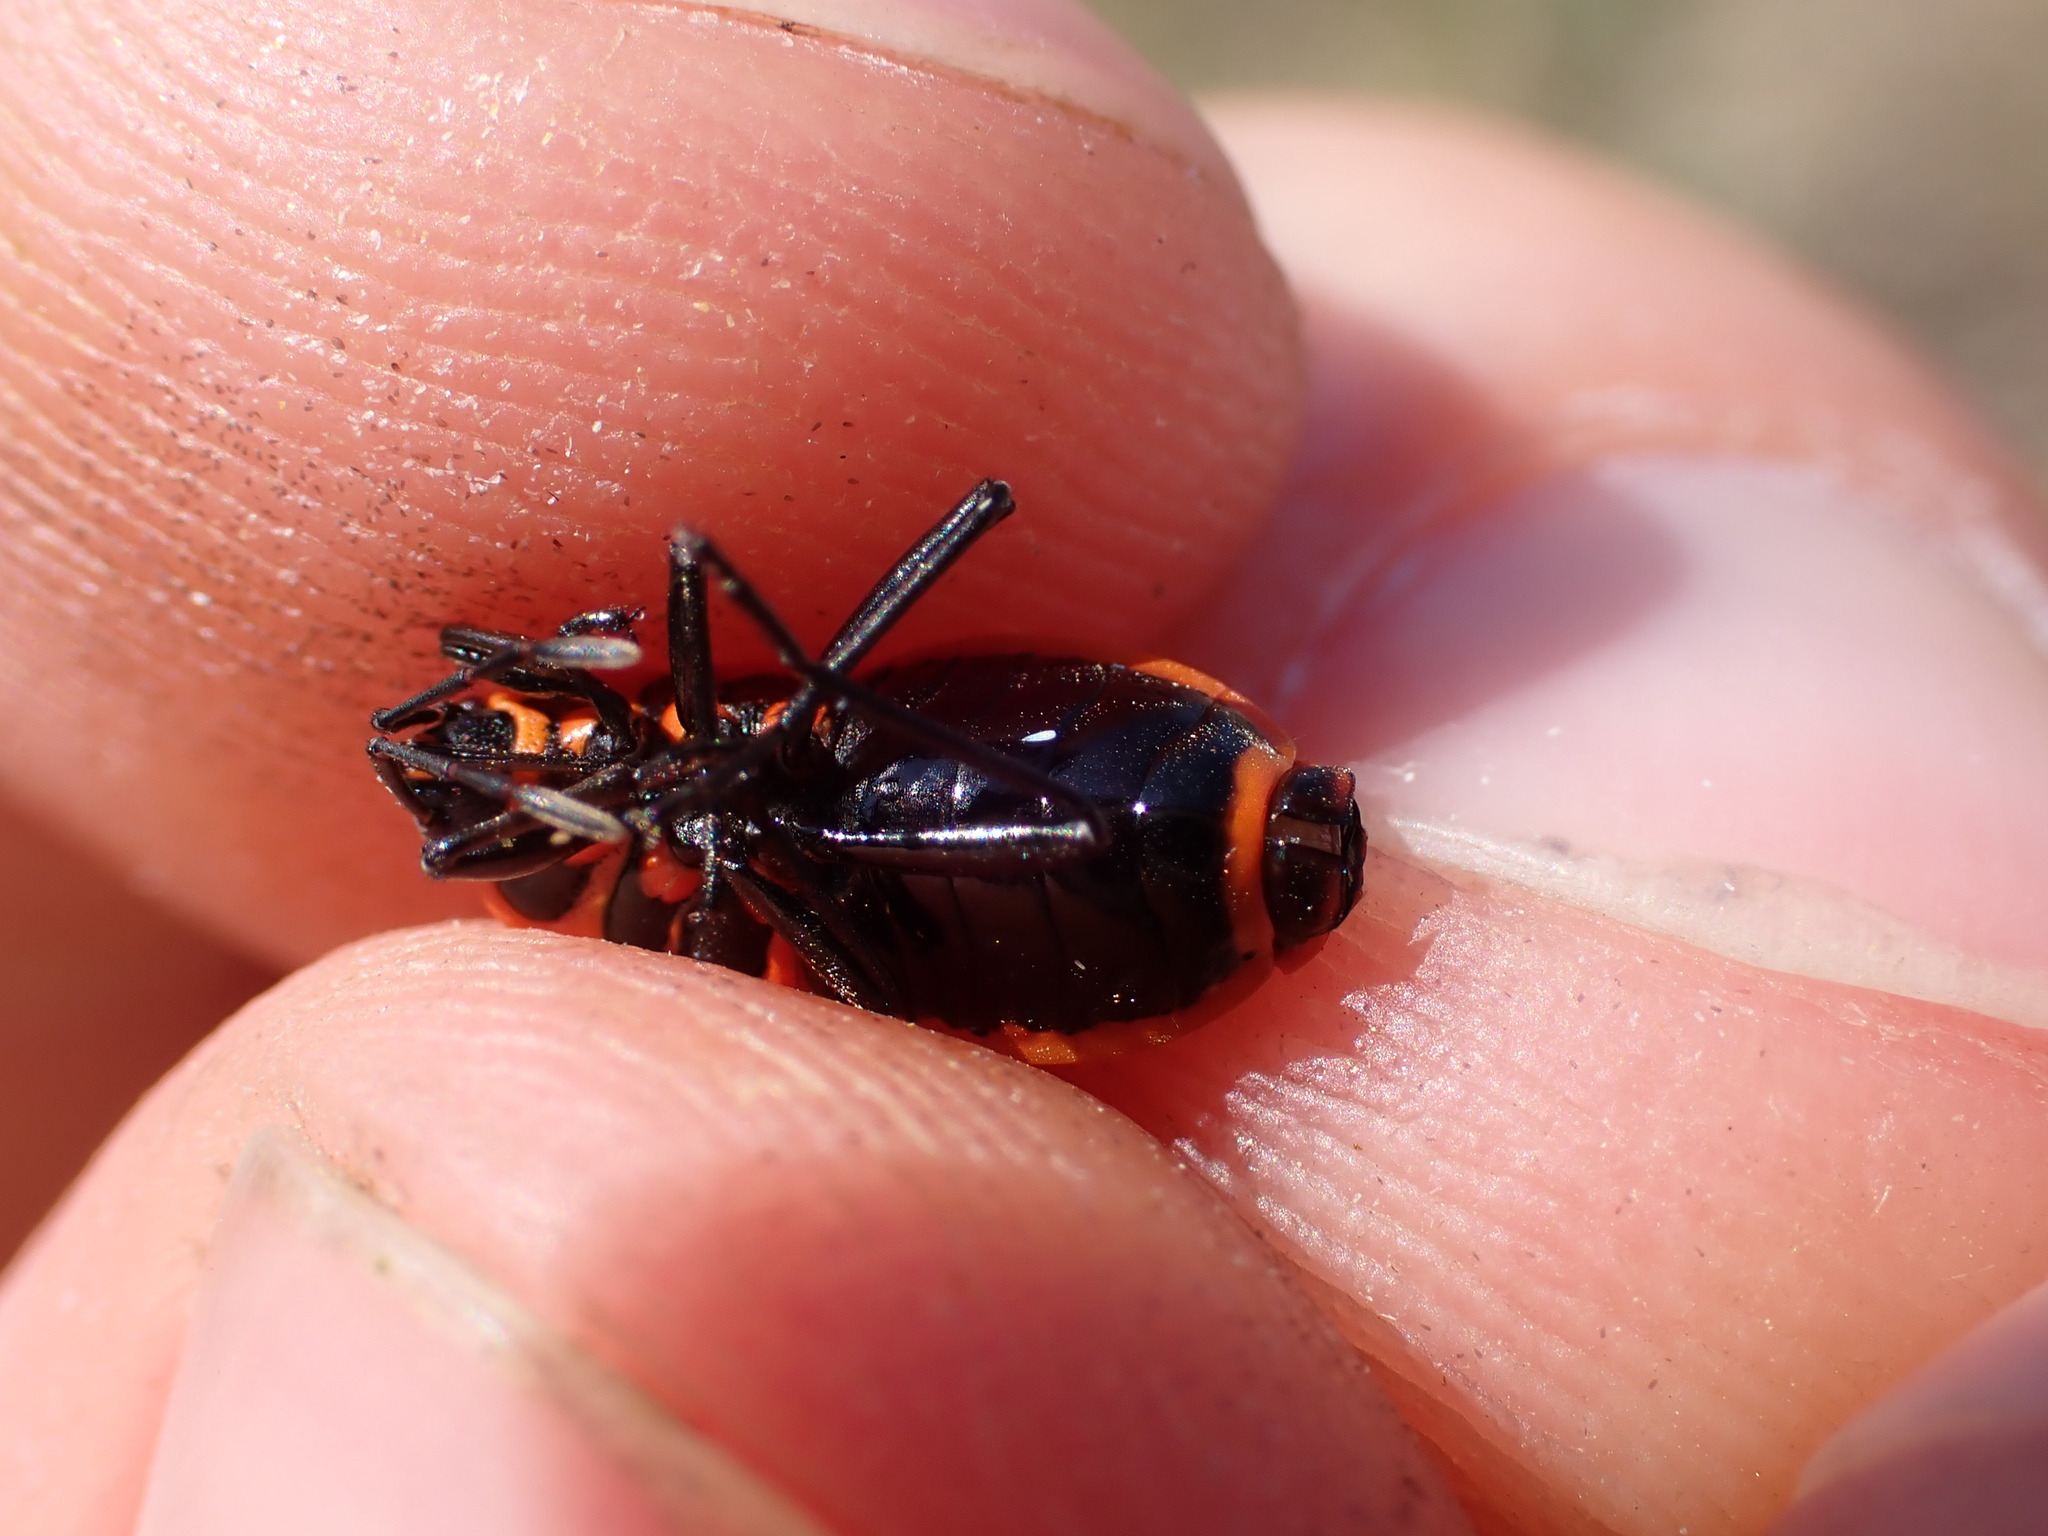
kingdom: Animalia
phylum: Arthropoda
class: Insecta
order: Hemiptera
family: Pyrrhocoridae
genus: Pyrrhocoris
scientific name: Pyrrhocoris apterus
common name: Firebug
